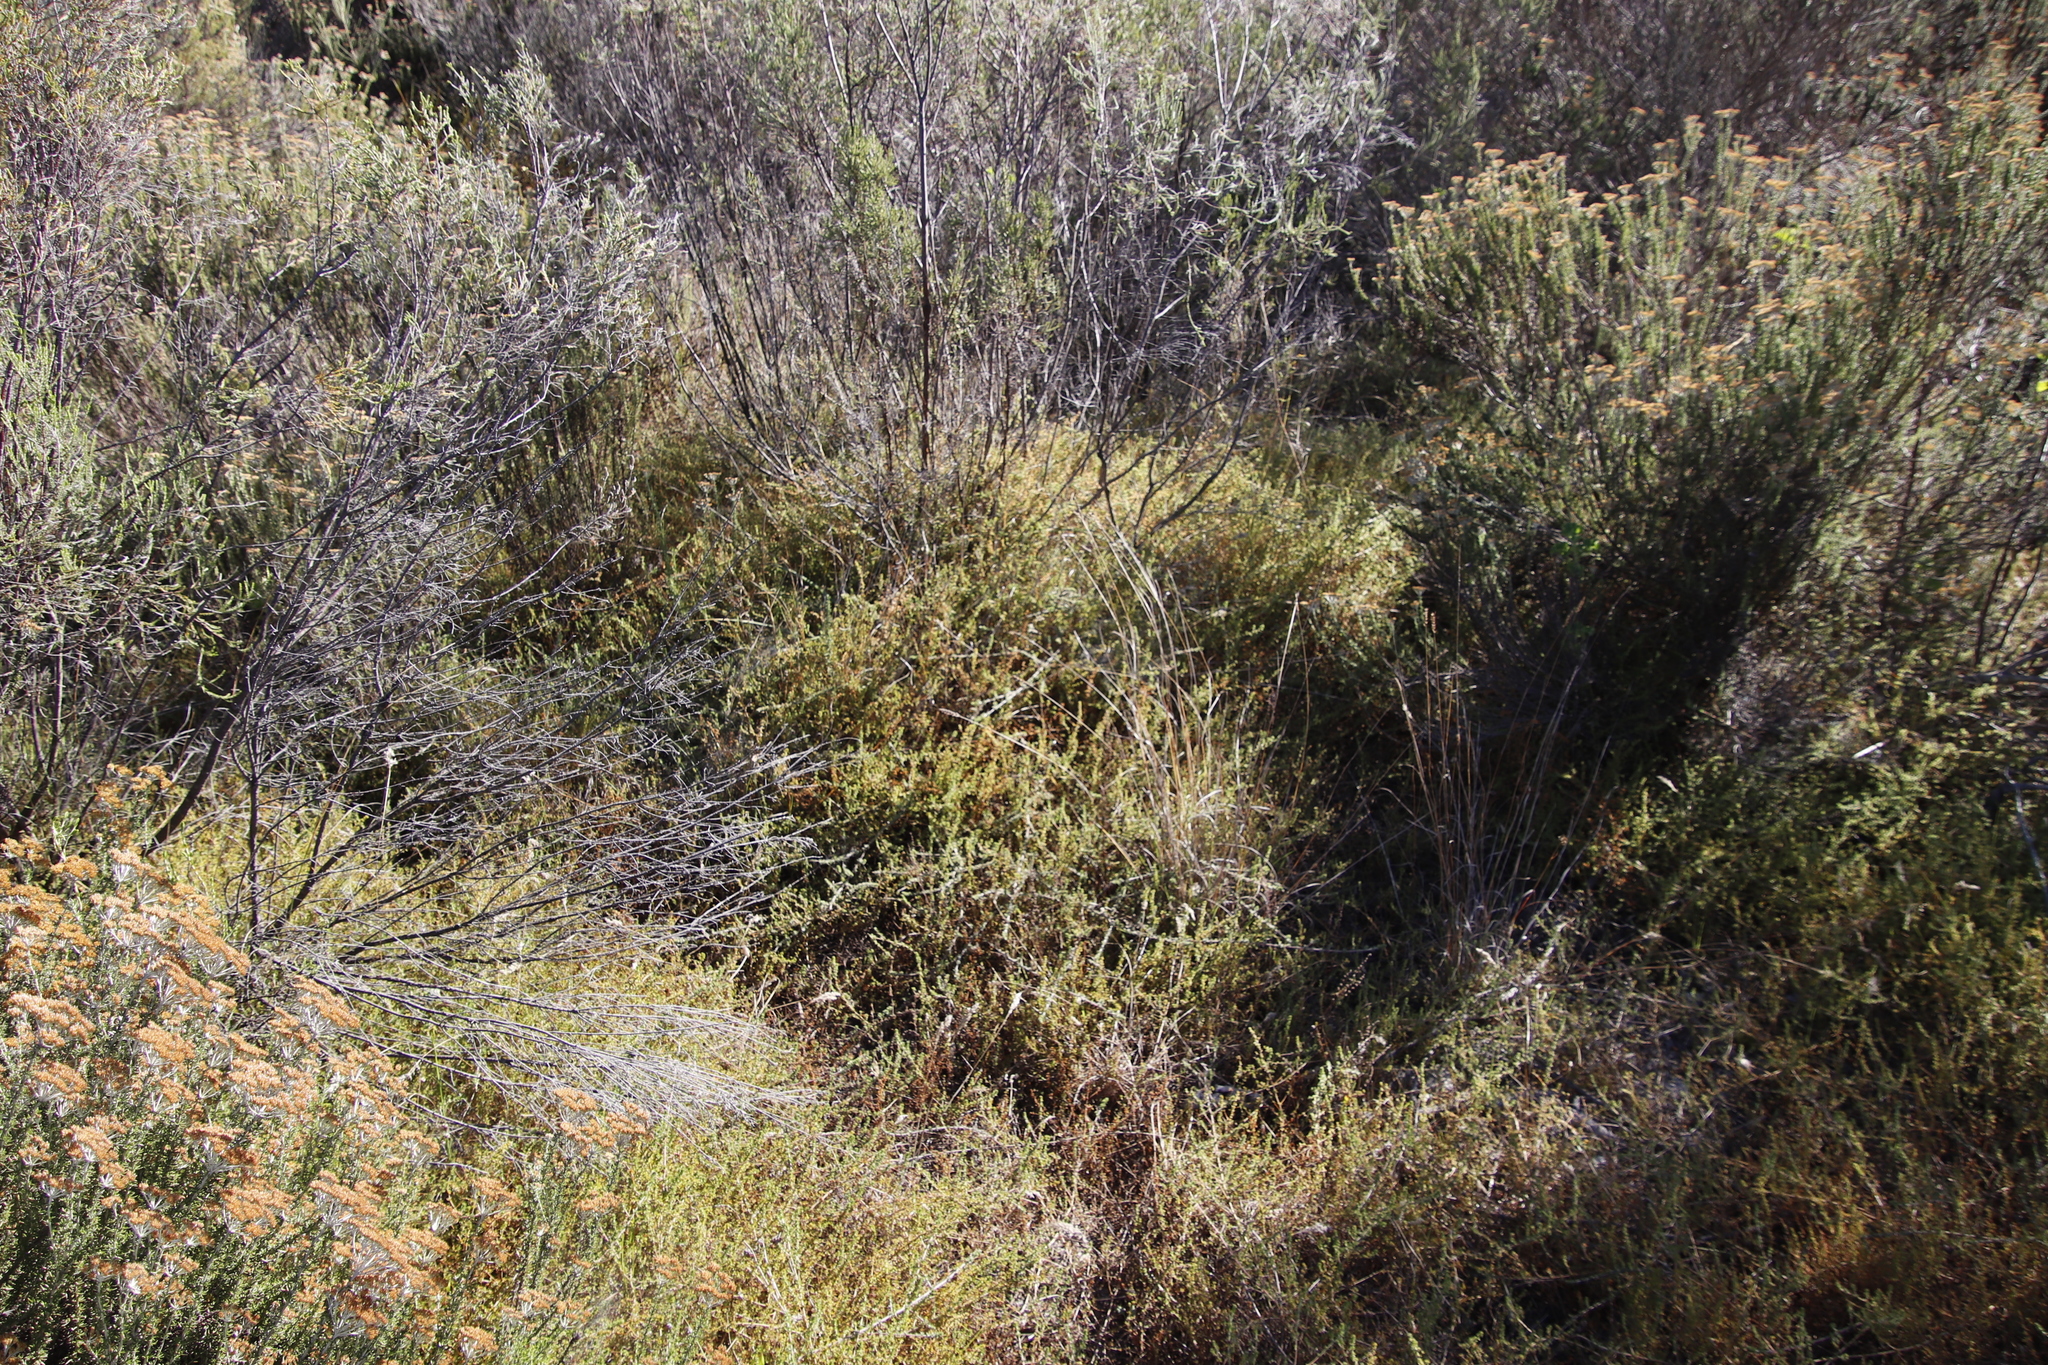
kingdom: Plantae
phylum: Tracheophyta
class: Magnoliopsida
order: Fabales
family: Fabaceae
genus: Aspalathus
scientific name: Aspalathus retroflexa
